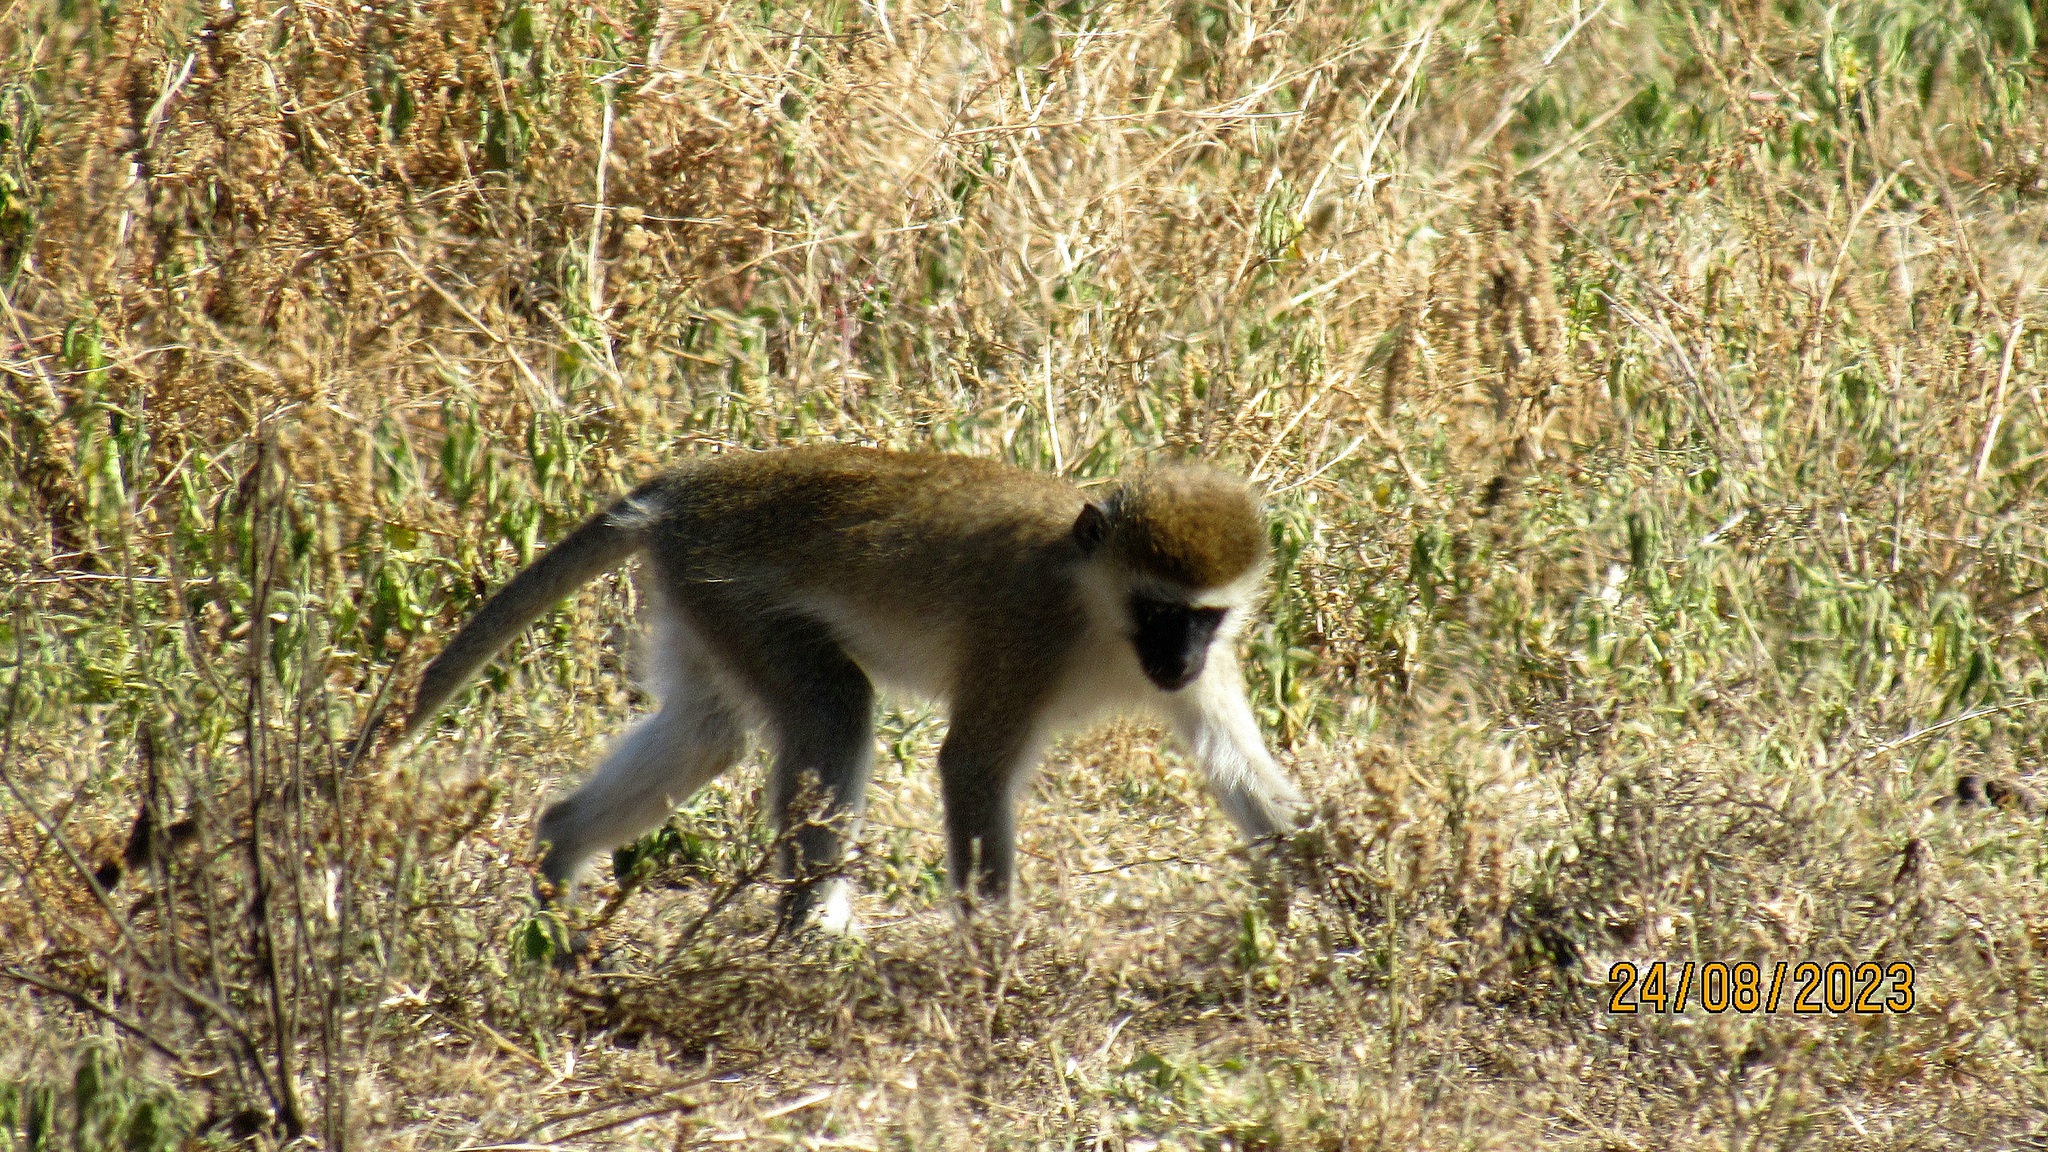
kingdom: Animalia
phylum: Chordata
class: Mammalia
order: Primates
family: Cercopithecidae
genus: Chlorocebus
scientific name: Chlorocebus pygerythrus
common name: Vervet monkey
